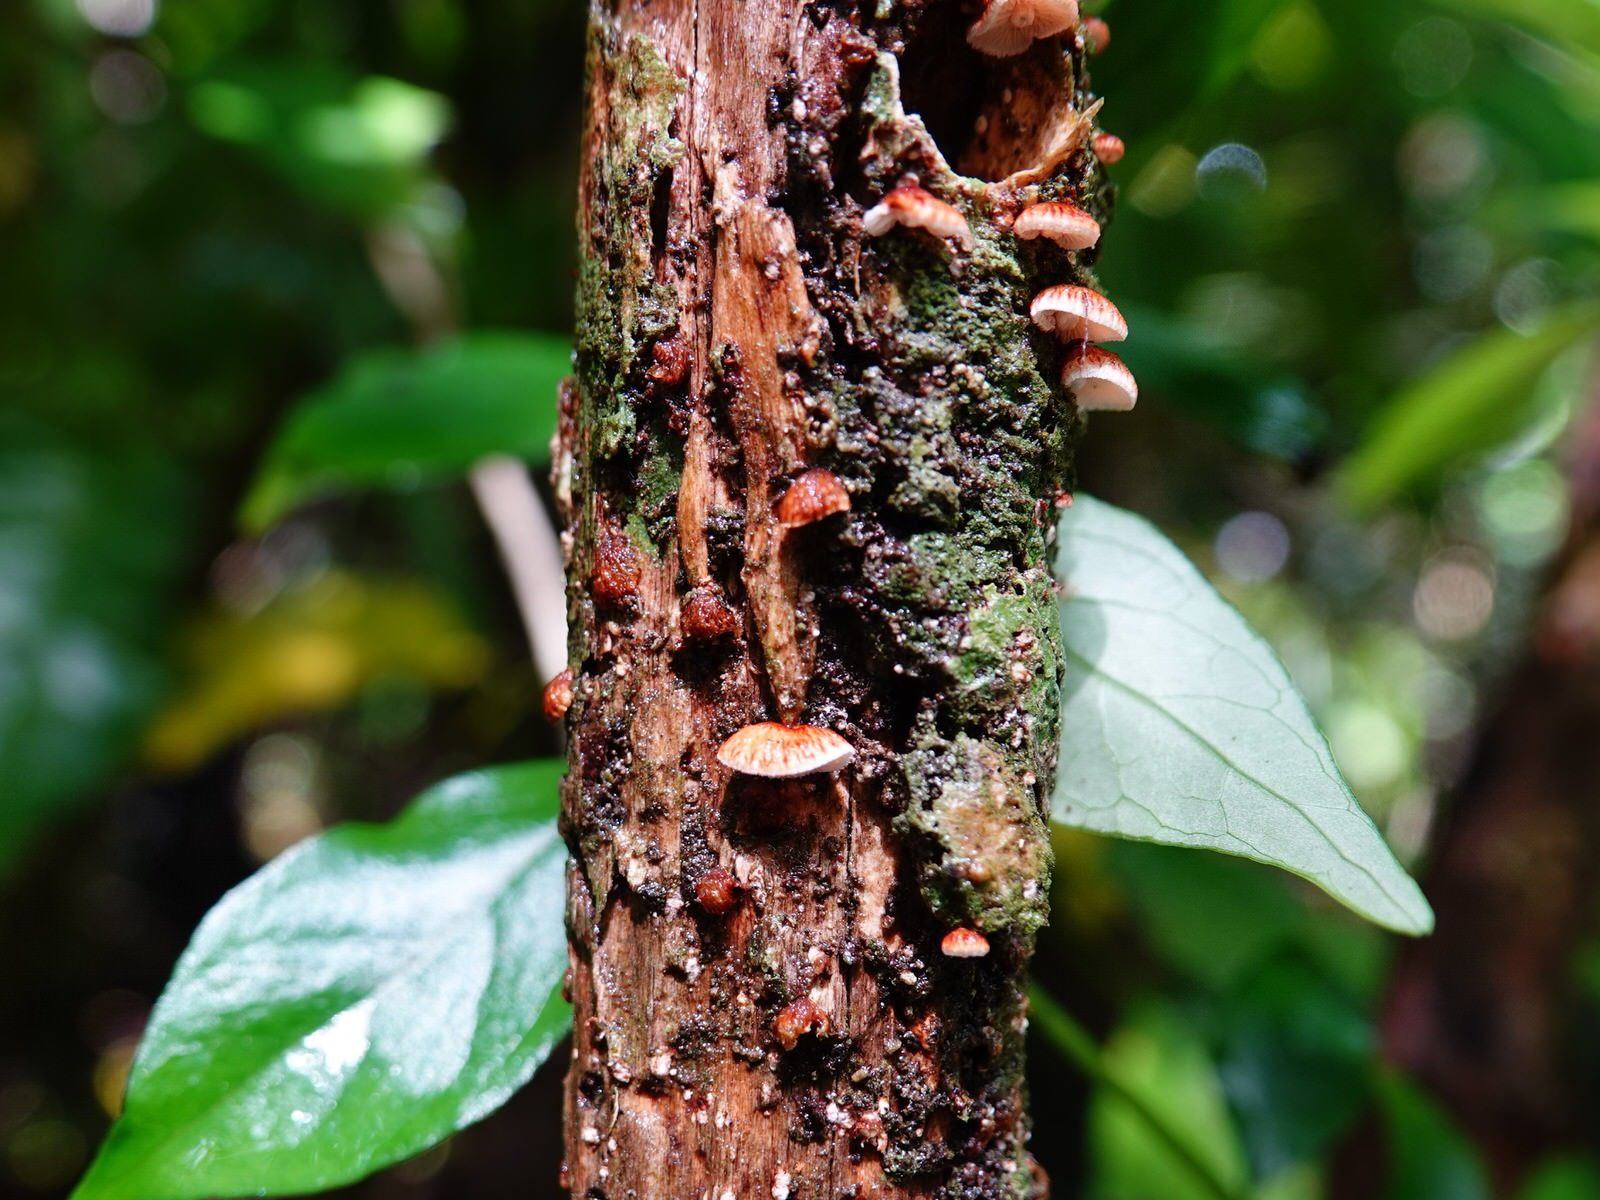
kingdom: Fungi
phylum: Basidiomycota
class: Agaricomycetes
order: Agaricales
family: Marasmiaceae
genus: Chaetocalathus
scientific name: Chaetocalathus cocciformis
